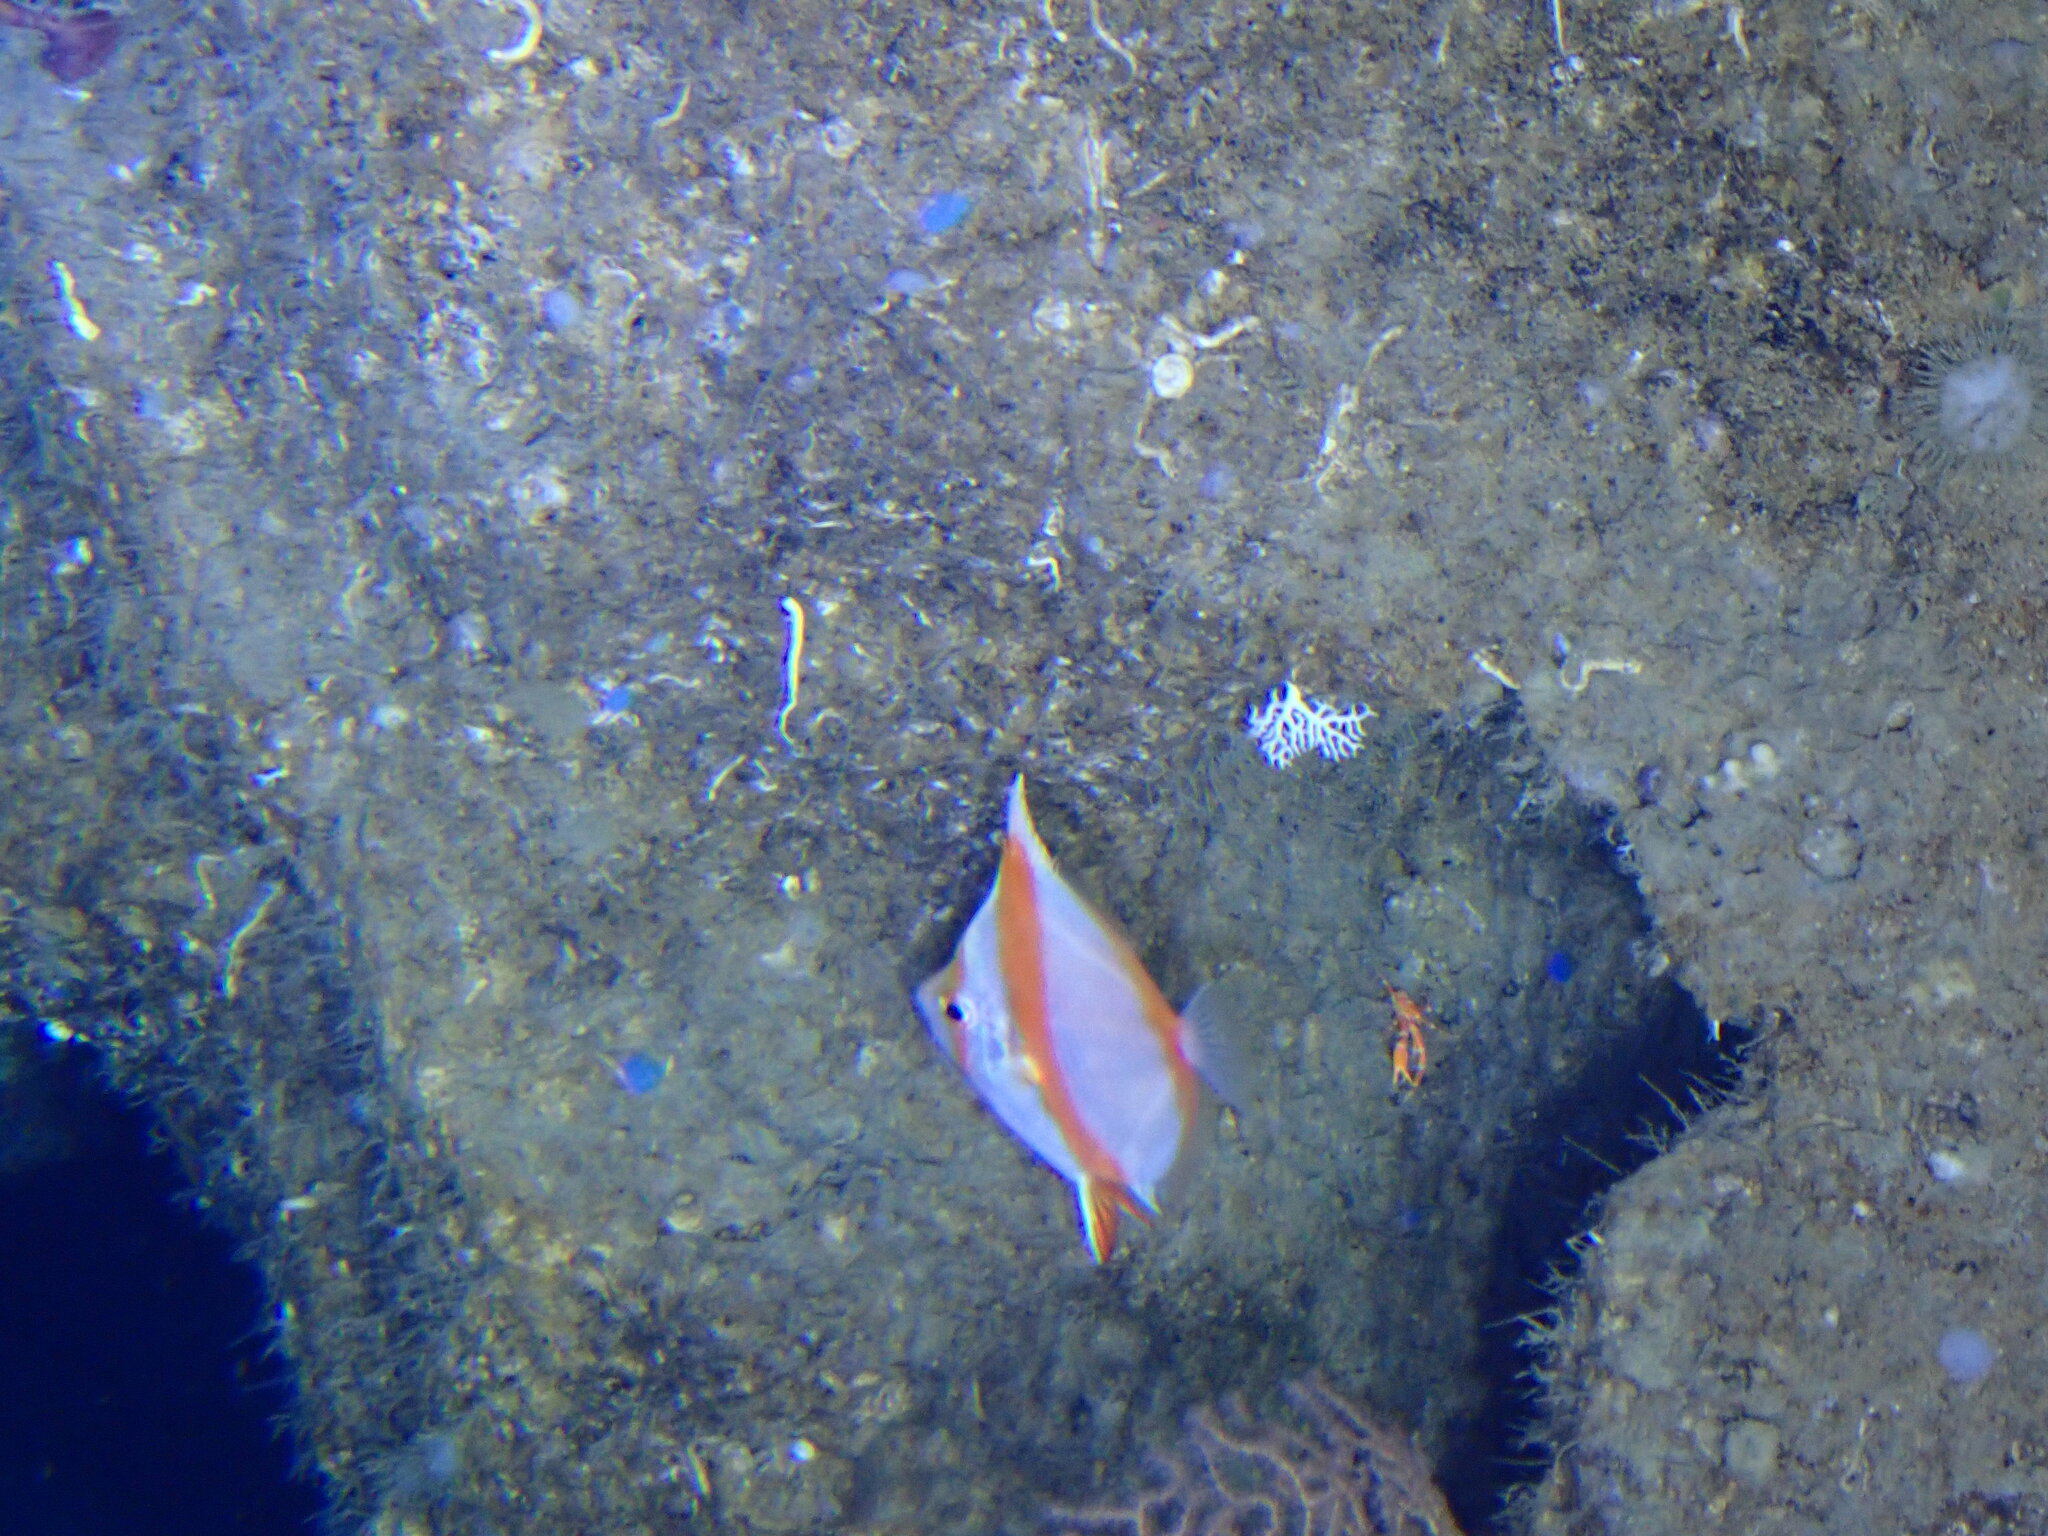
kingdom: Animalia
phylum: Chordata
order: Perciformes
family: Caproidae
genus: Antigonia
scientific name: Antigonia capros
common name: Deepbody boarfish
